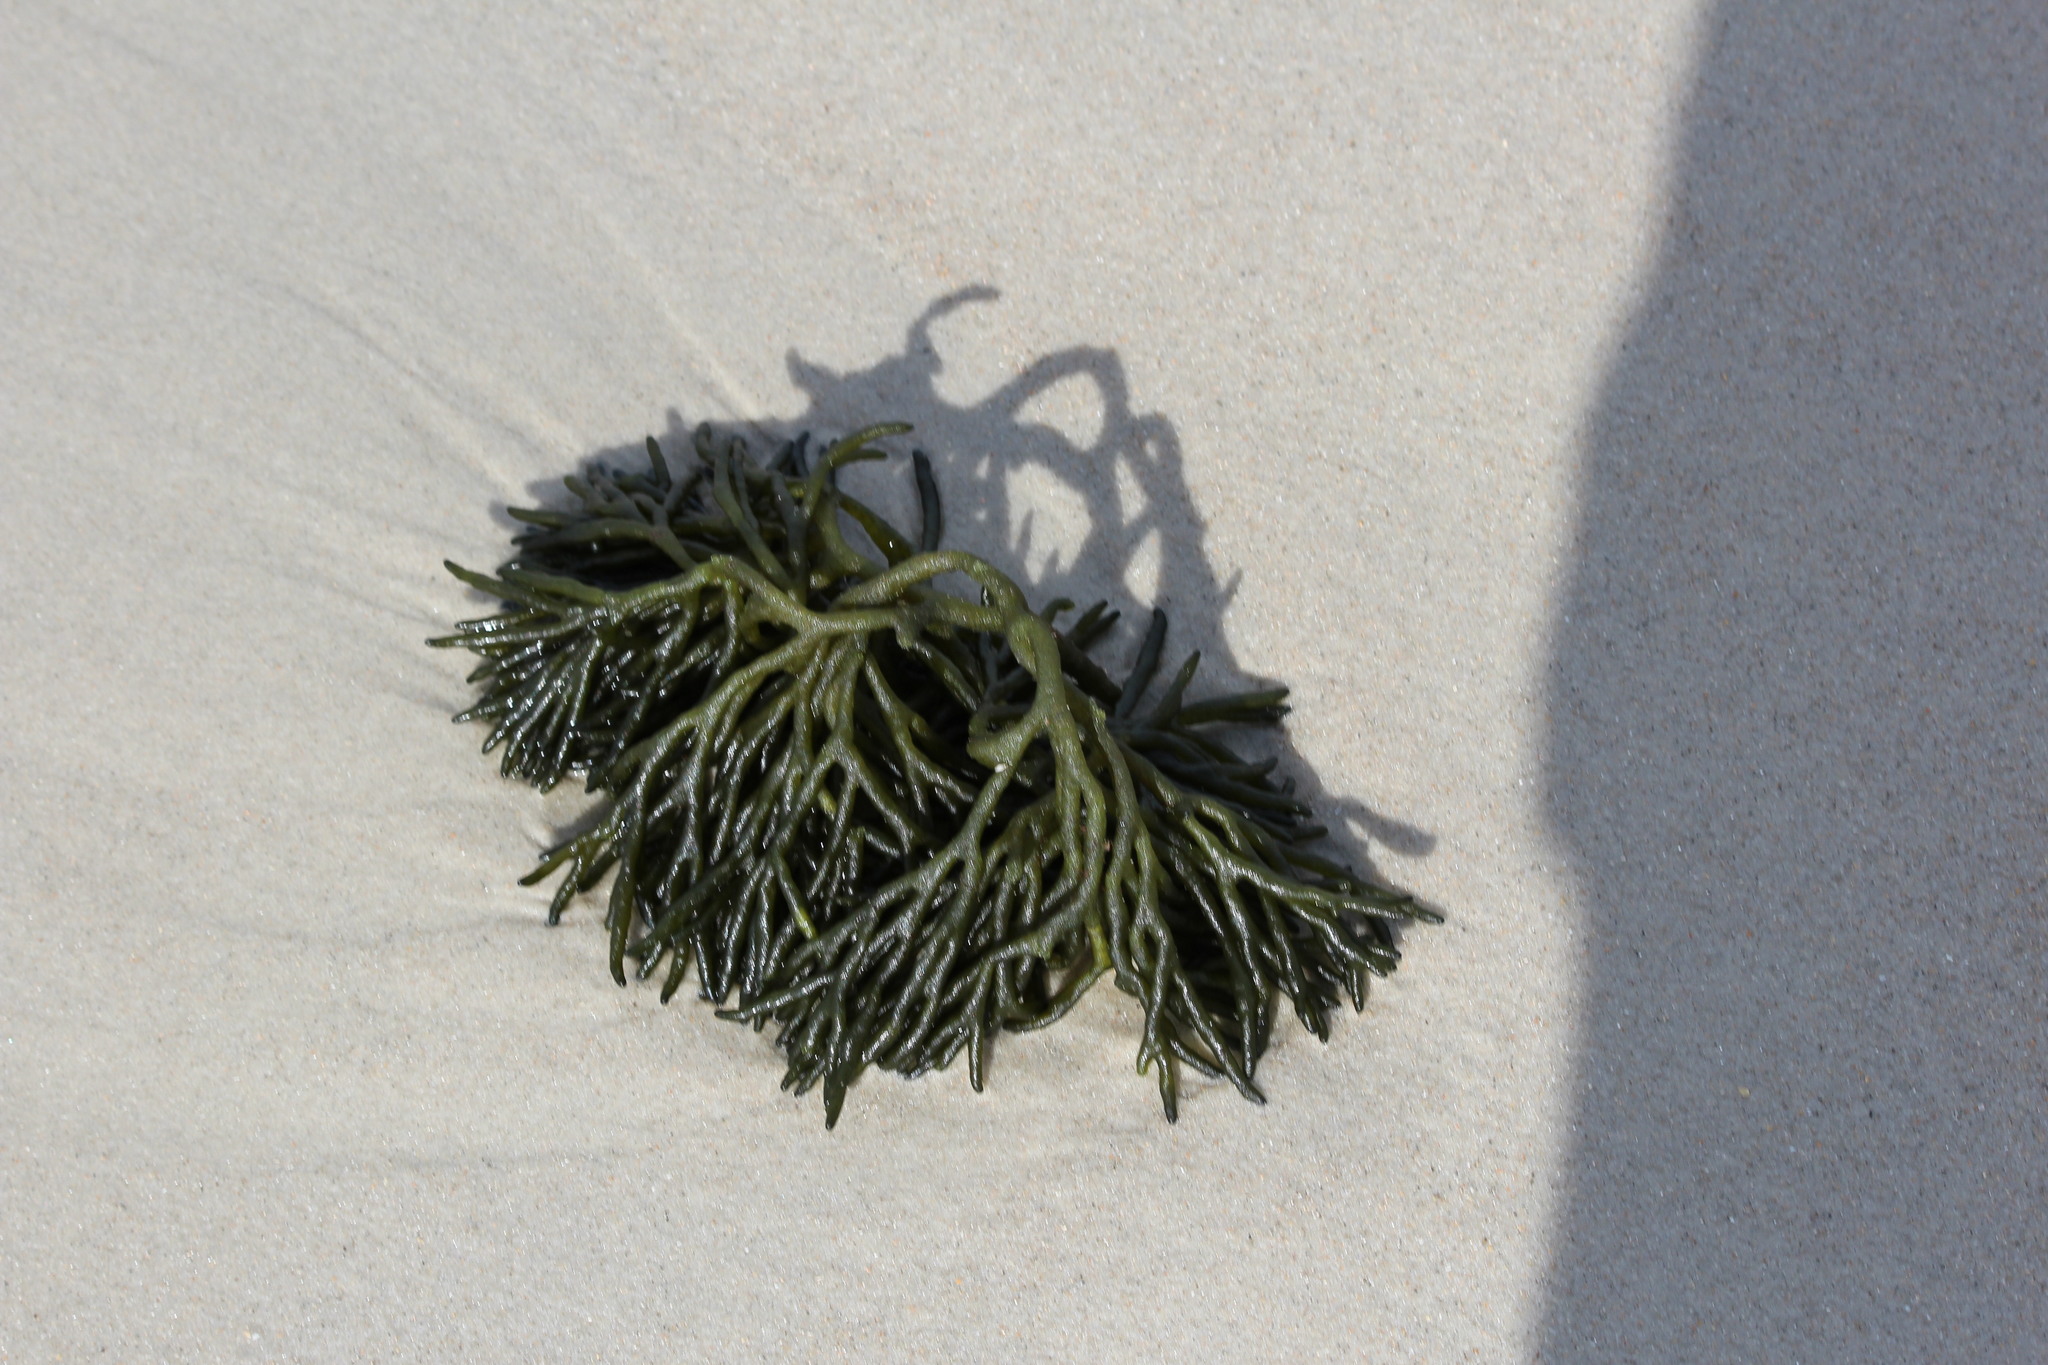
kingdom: Plantae
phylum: Chlorophyta
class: Ulvophyceae
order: Bryopsidales
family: Codiaceae
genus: Codium
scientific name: Codium fragile
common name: Dead man's fingers
